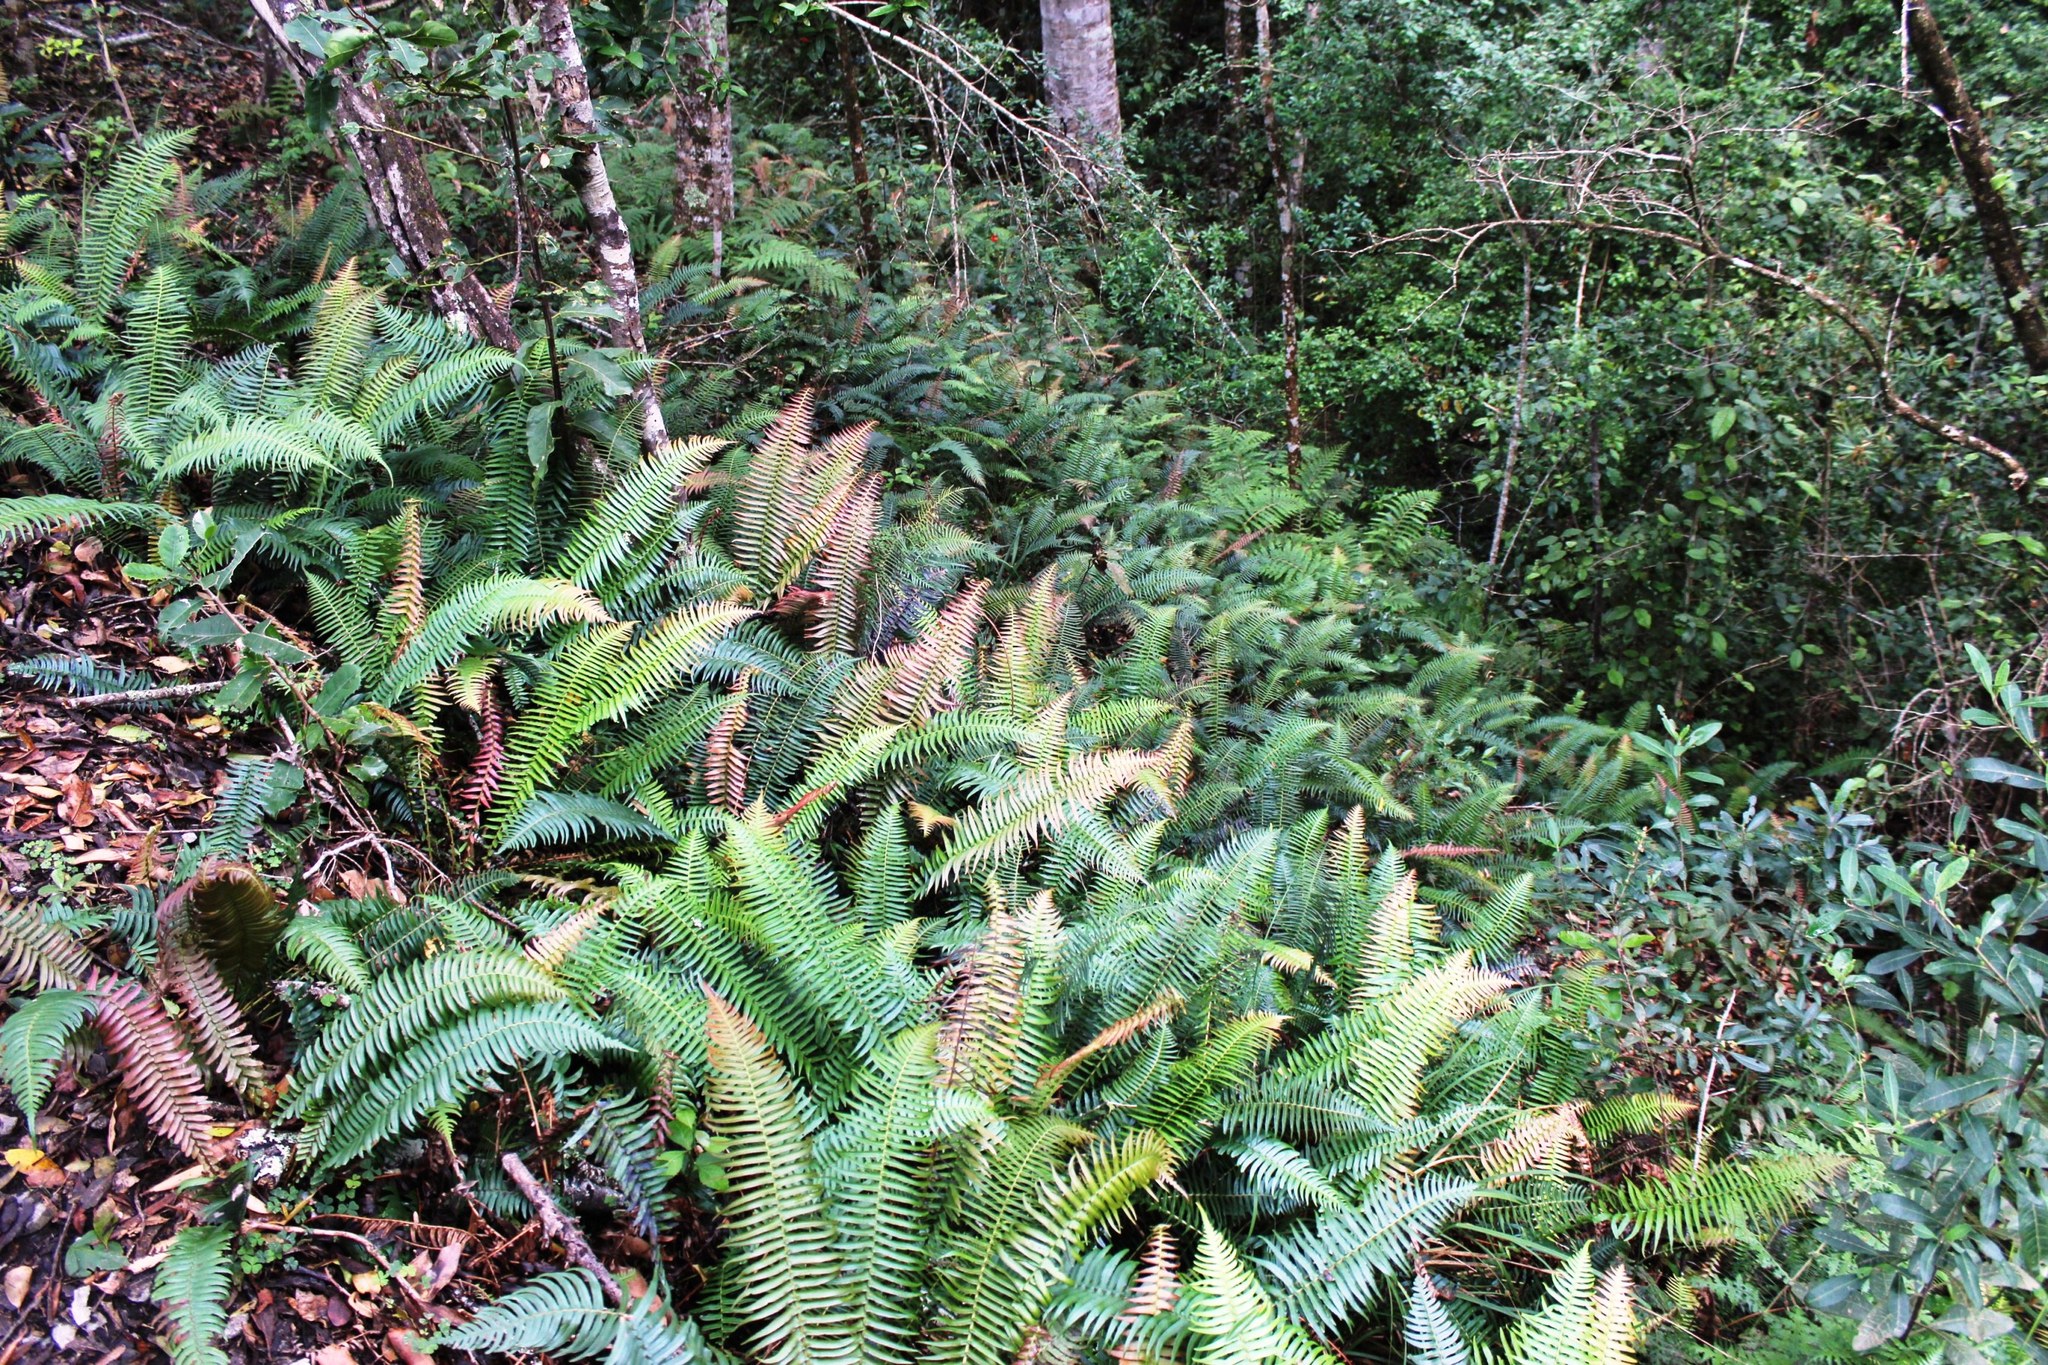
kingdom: Plantae
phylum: Tracheophyta
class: Polypodiopsida
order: Polypodiales
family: Blechnaceae
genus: Lomaridium
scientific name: Lomaridium attenuatum
